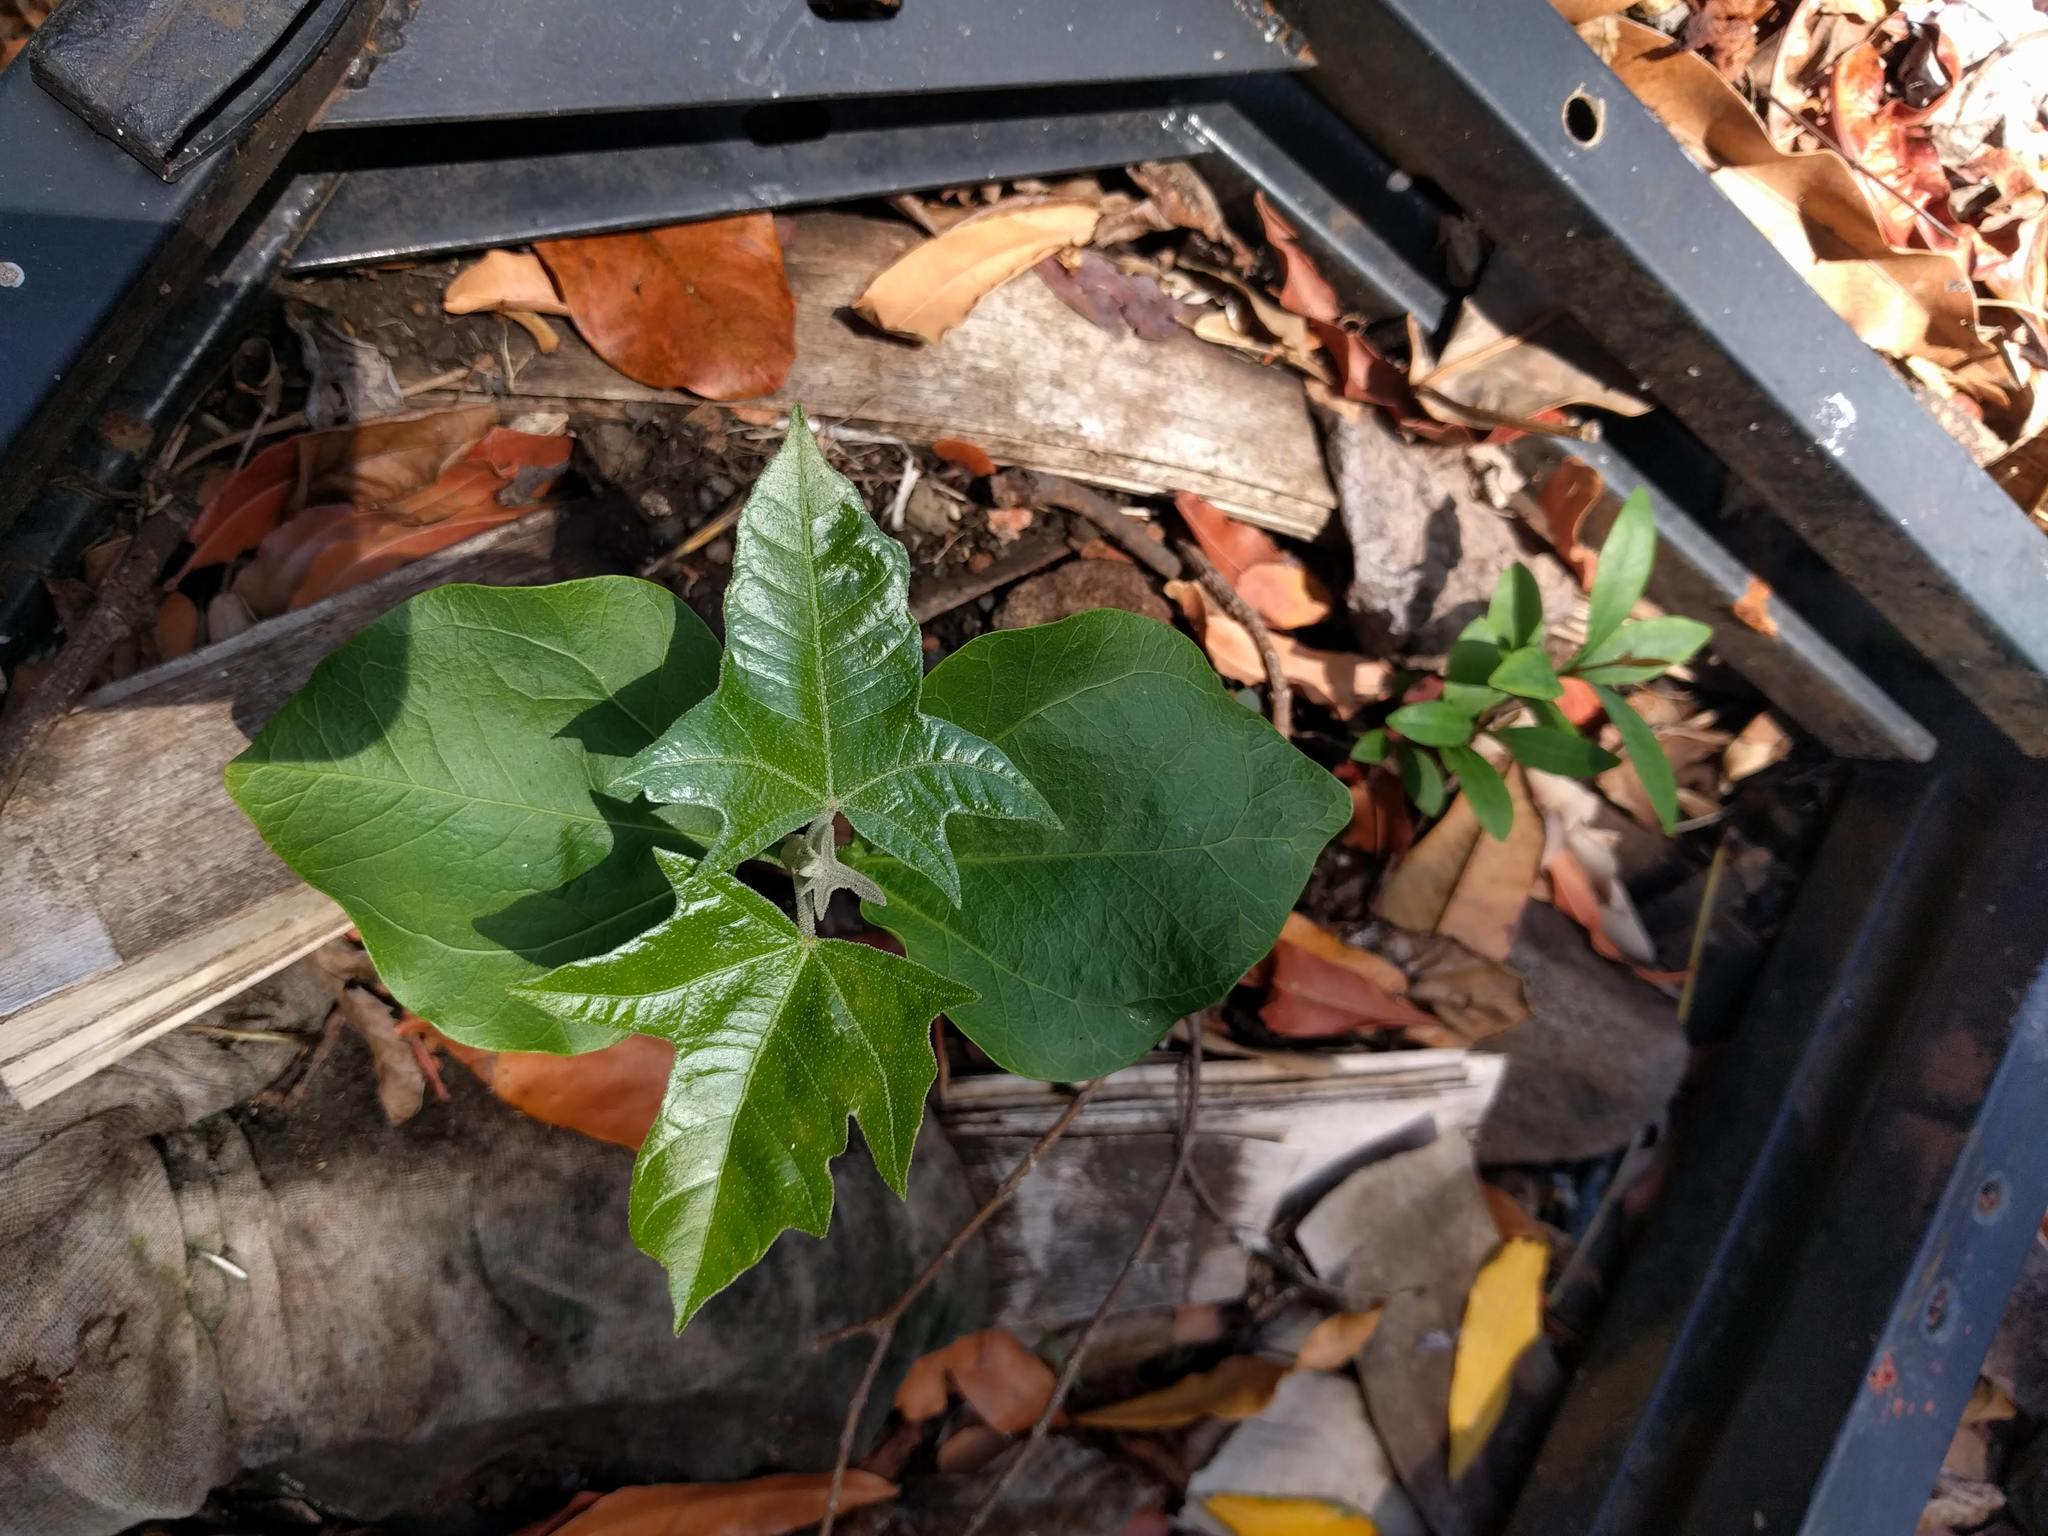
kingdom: Plantae
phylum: Tracheophyta
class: Magnoliopsida
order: Malpighiales
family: Euphorbiaceae
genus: Aleurites
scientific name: Aleurites moluccanus
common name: Candlenut tree
